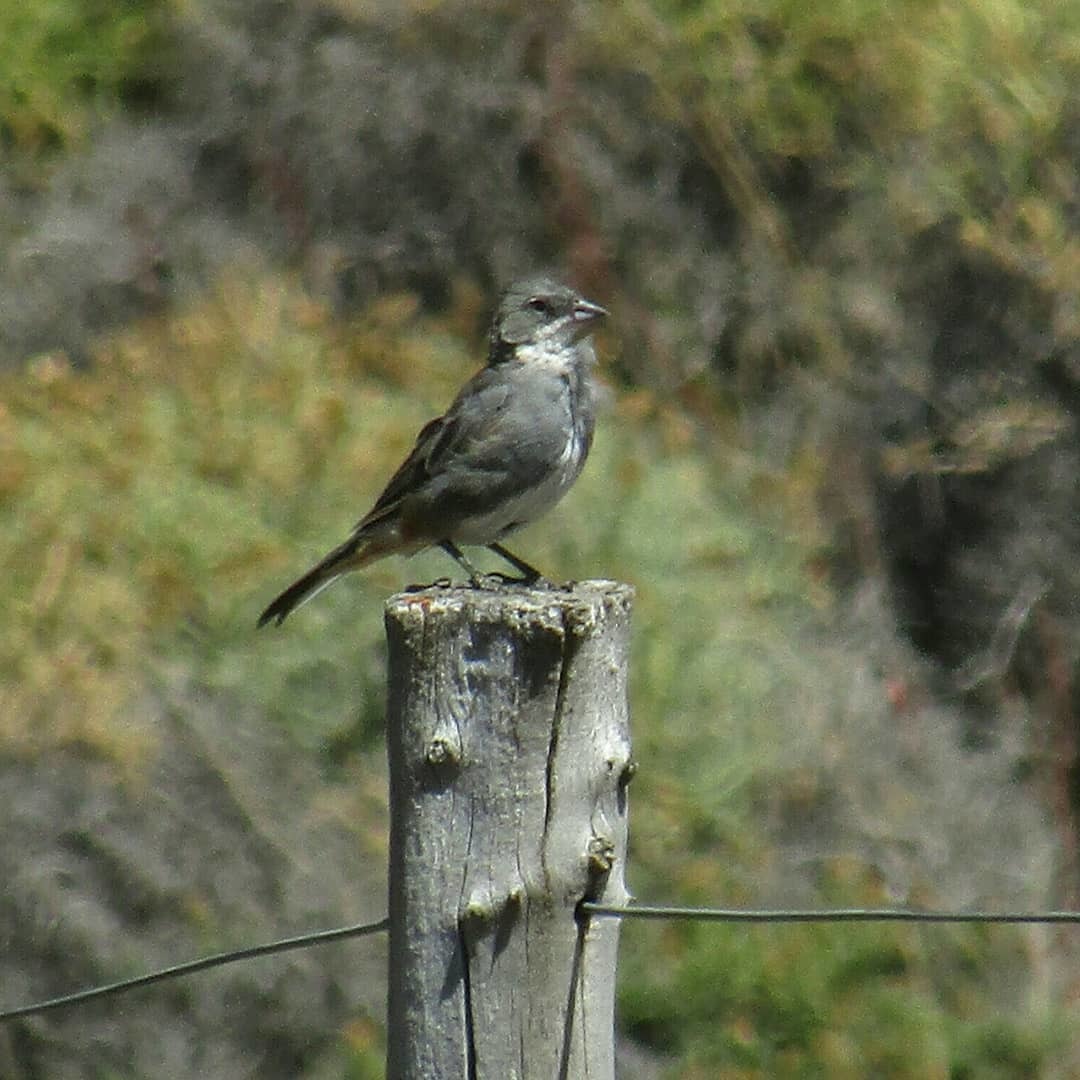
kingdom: Animalia
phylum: Chordata
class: Aves
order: Passeriformes
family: Thraupidae
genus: Diuca
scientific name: Diuca diuca
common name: Common diuca finch
